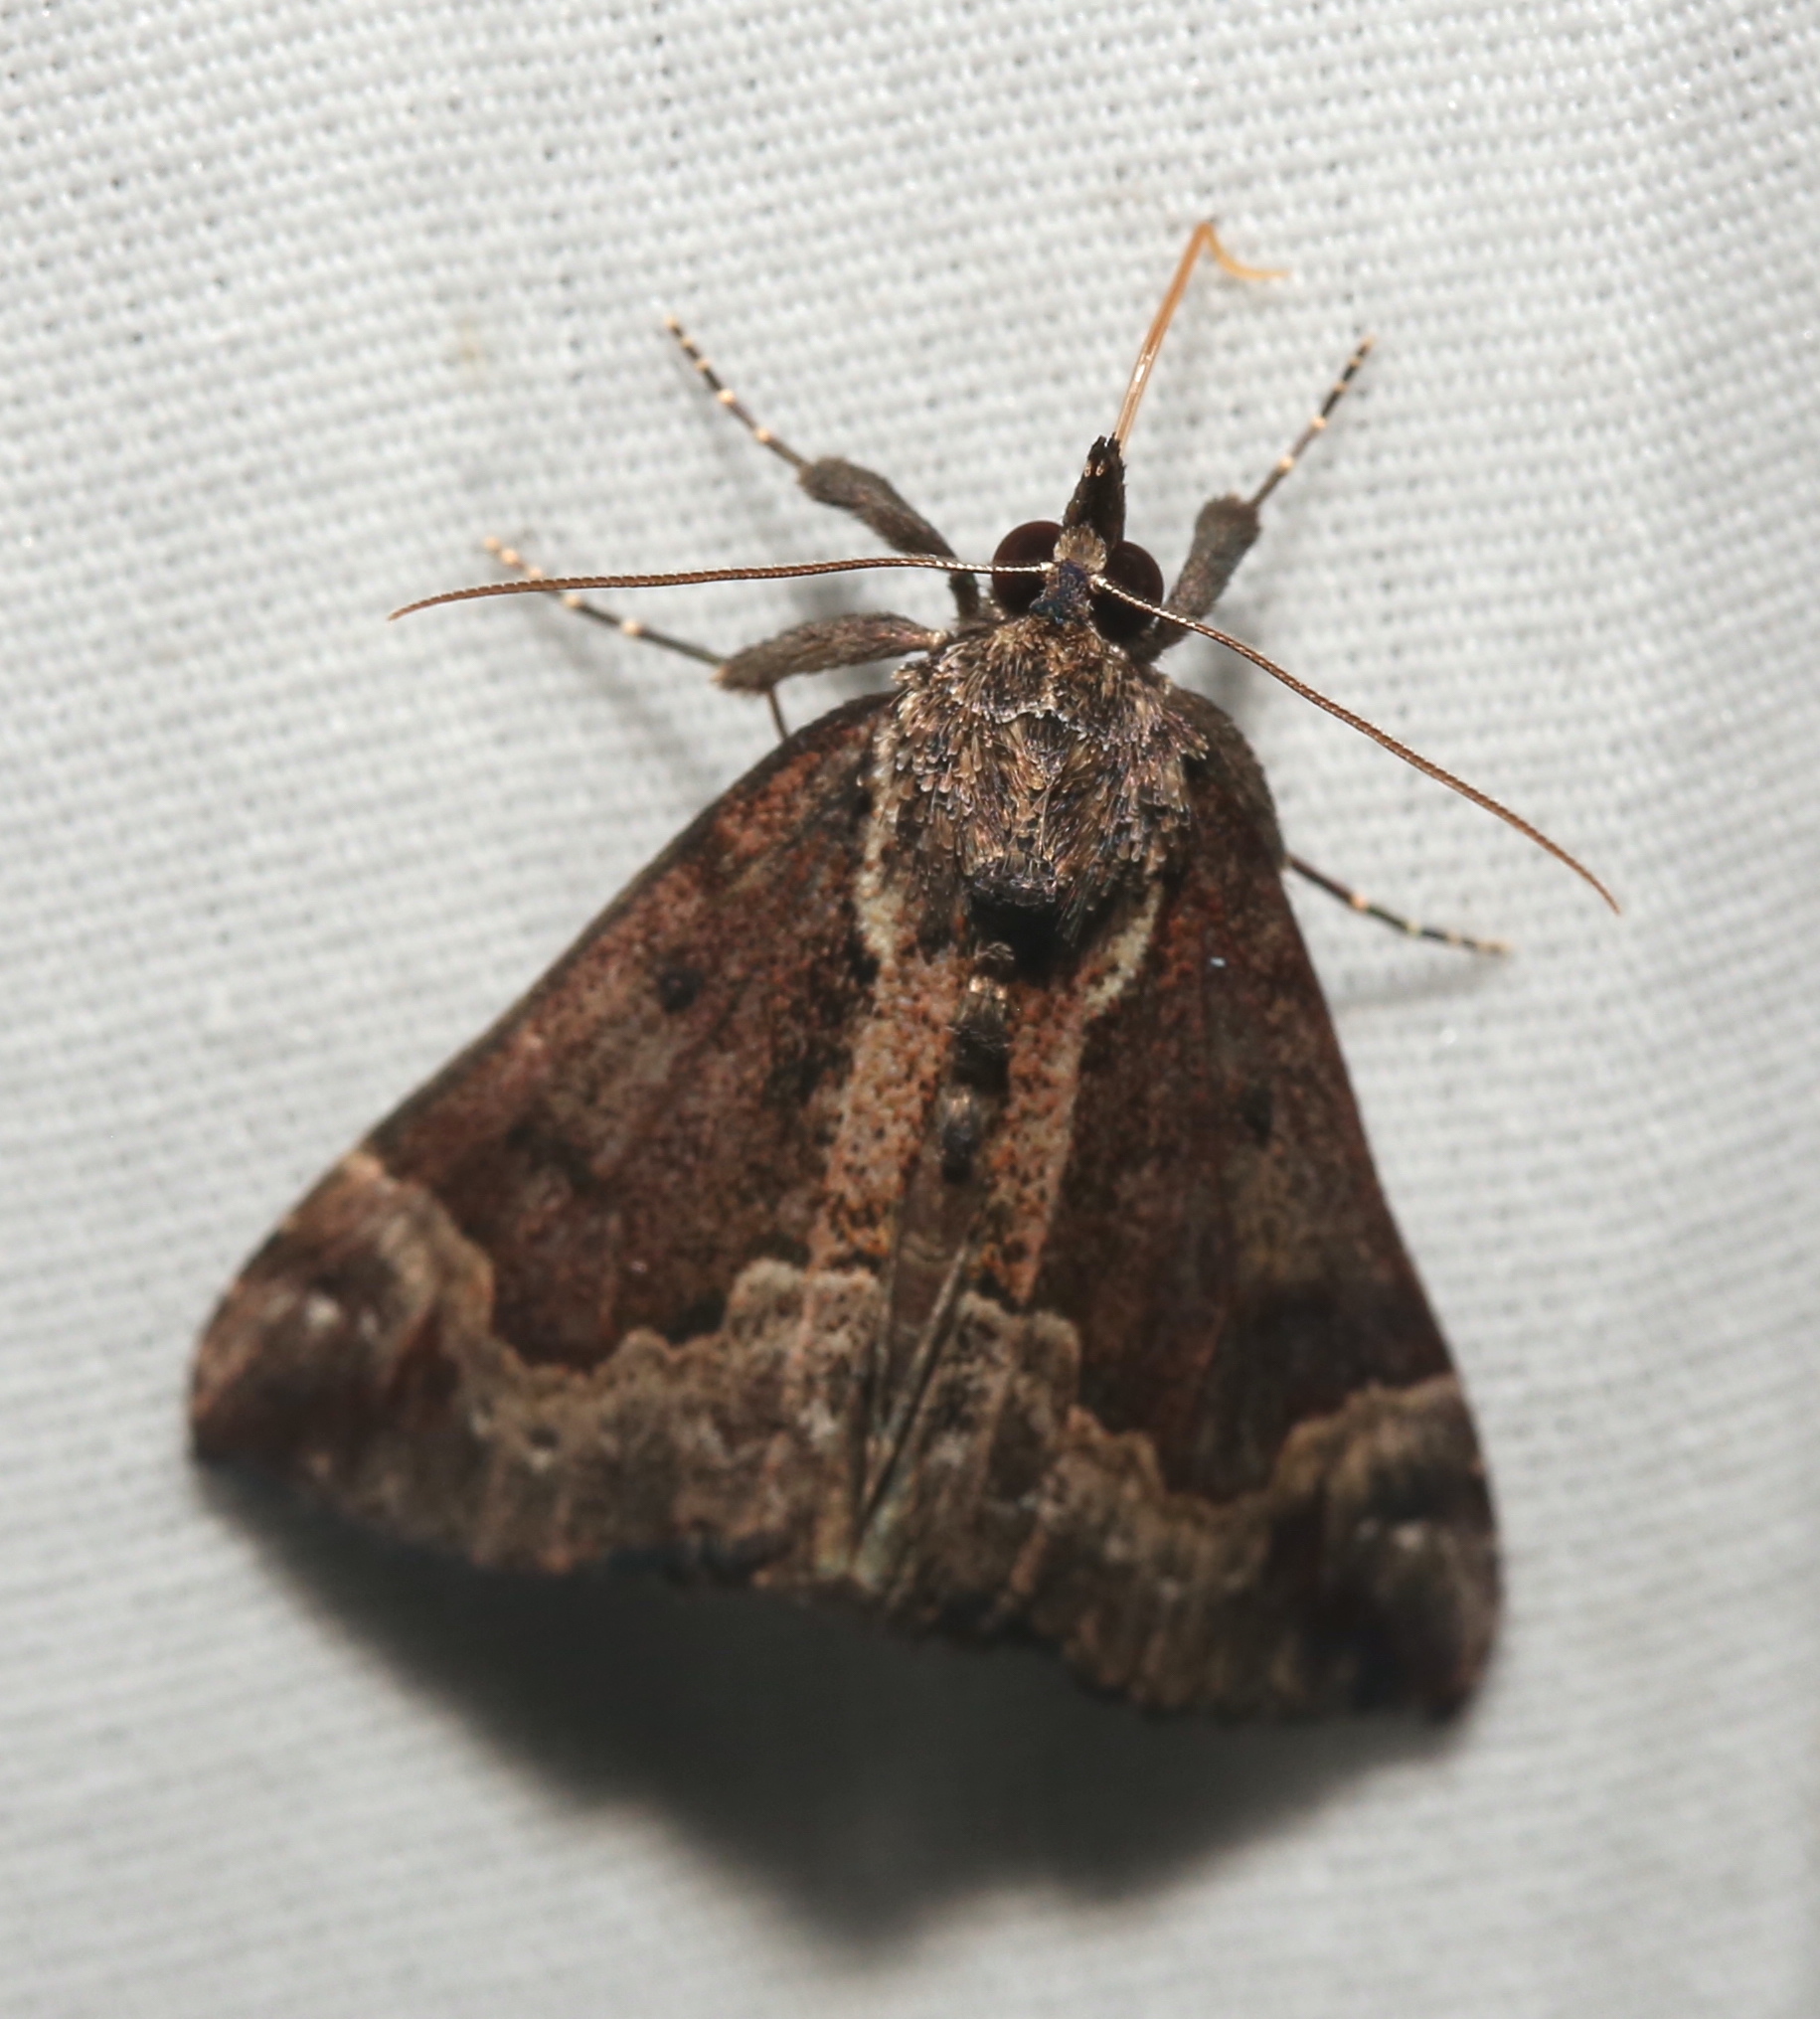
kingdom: Animalia
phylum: Arthropoda
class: Insecta
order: Lepidoptera
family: Erebidae
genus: Hypena
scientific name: Hypena baltimoralis
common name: Baltimore snout
